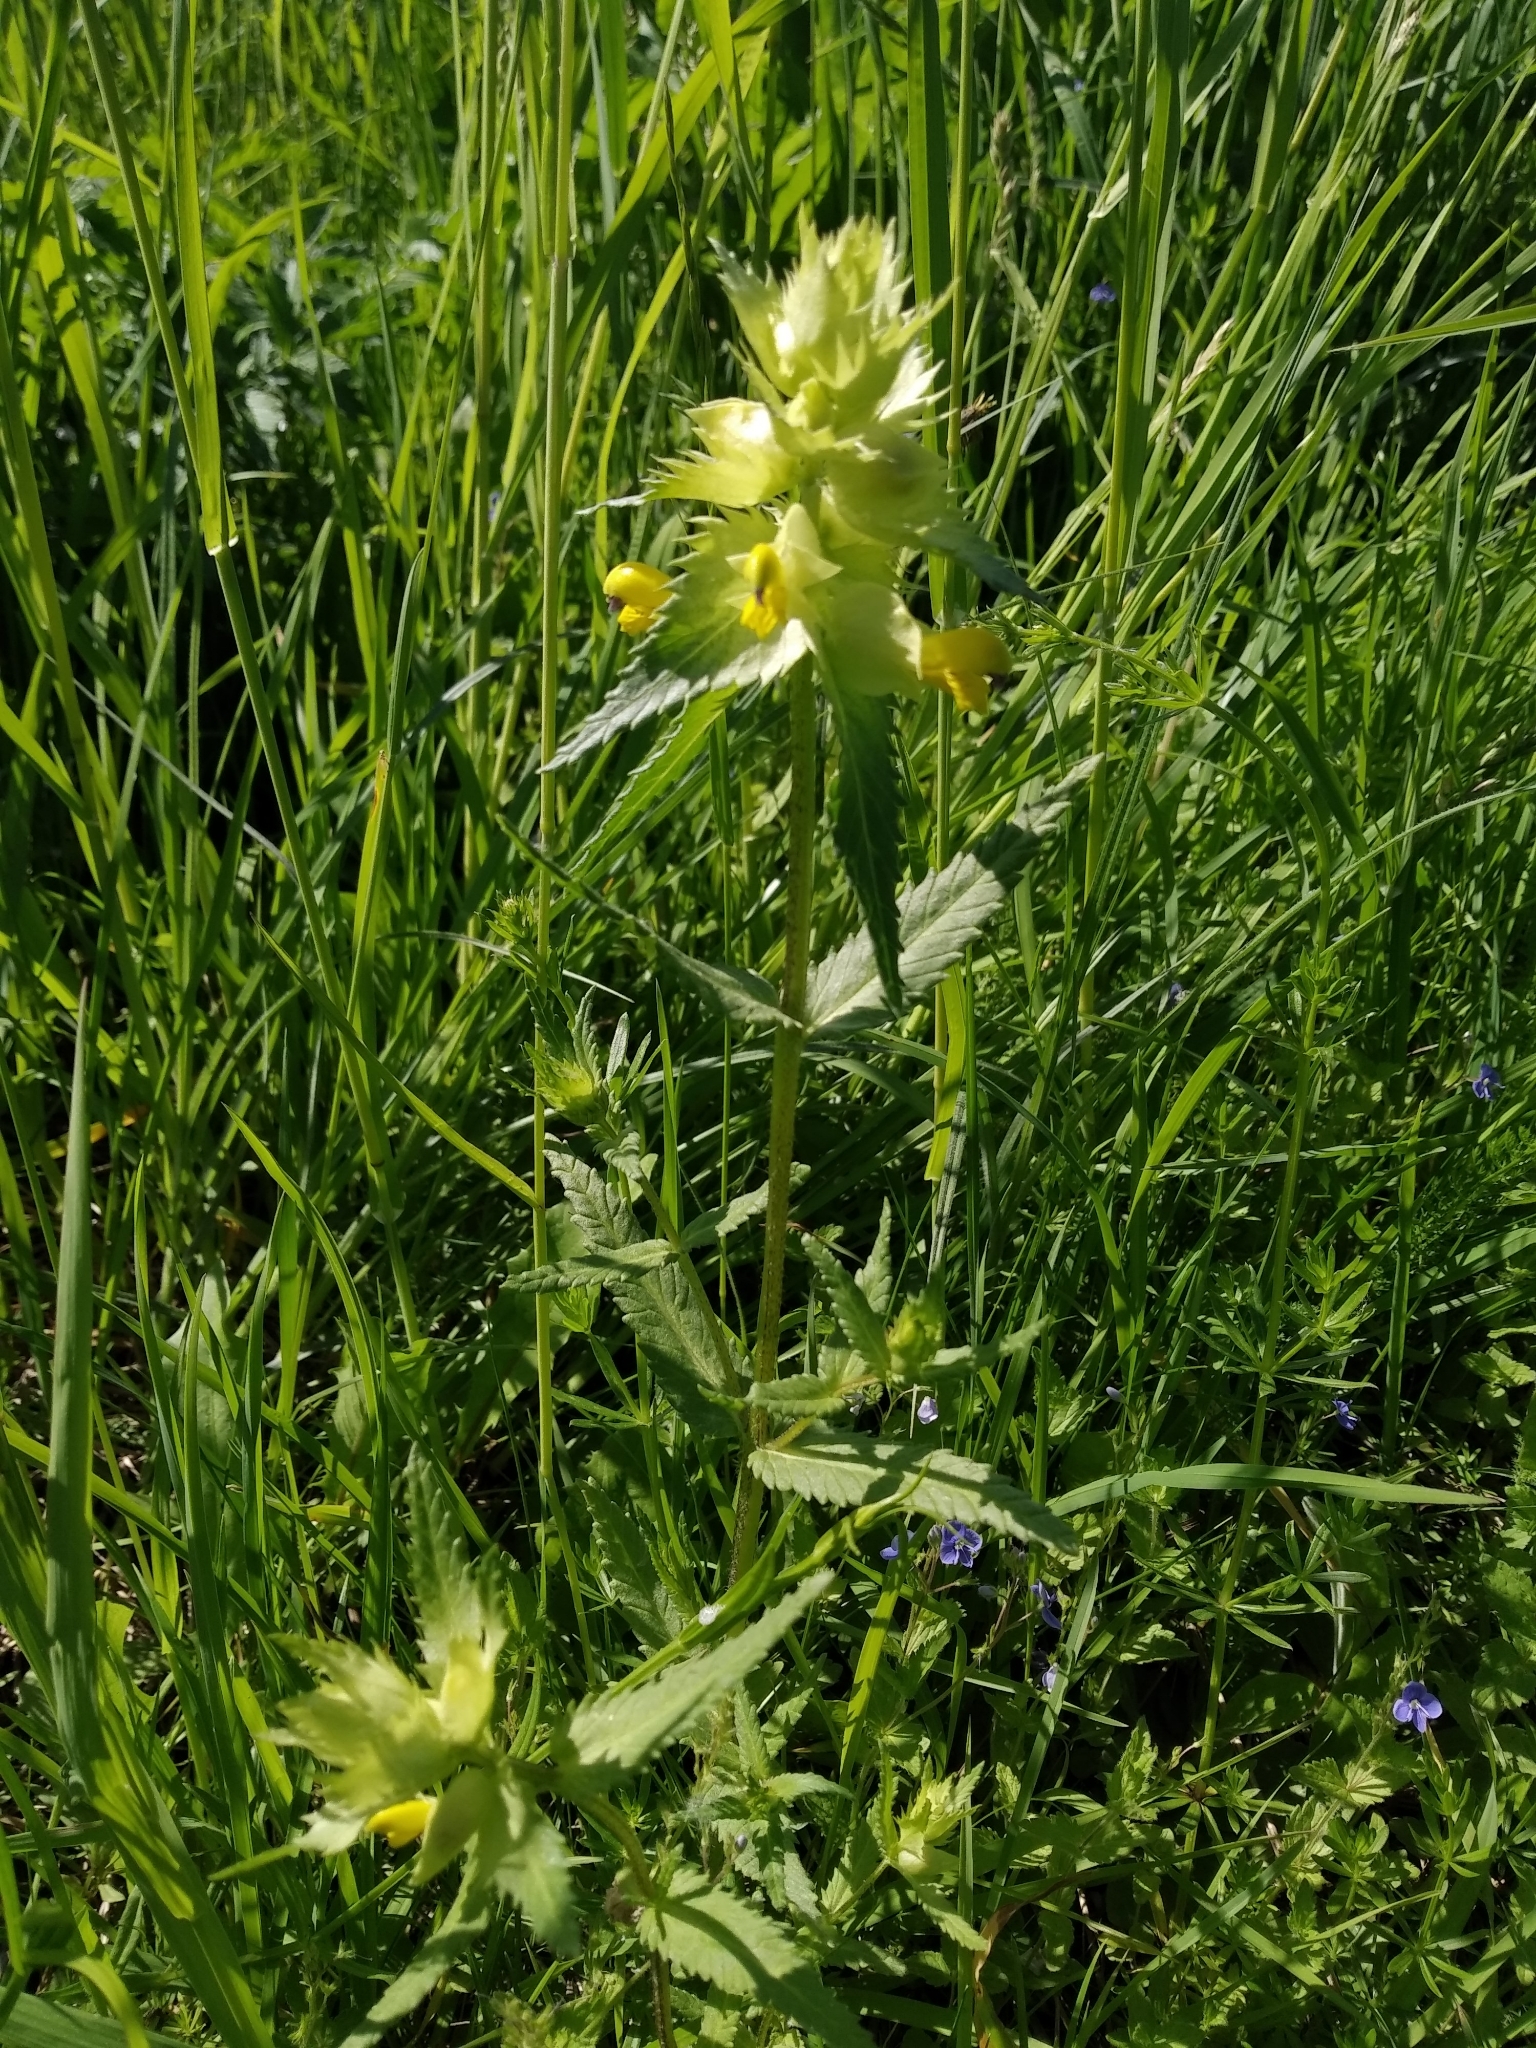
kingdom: Plantae
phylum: Tracheophyta
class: Magnoliopsida
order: Lamiales
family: Orobanchaceae
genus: Rhinanthus
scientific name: Rhinanthus serotinus
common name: Late-flowering yellow rattle
